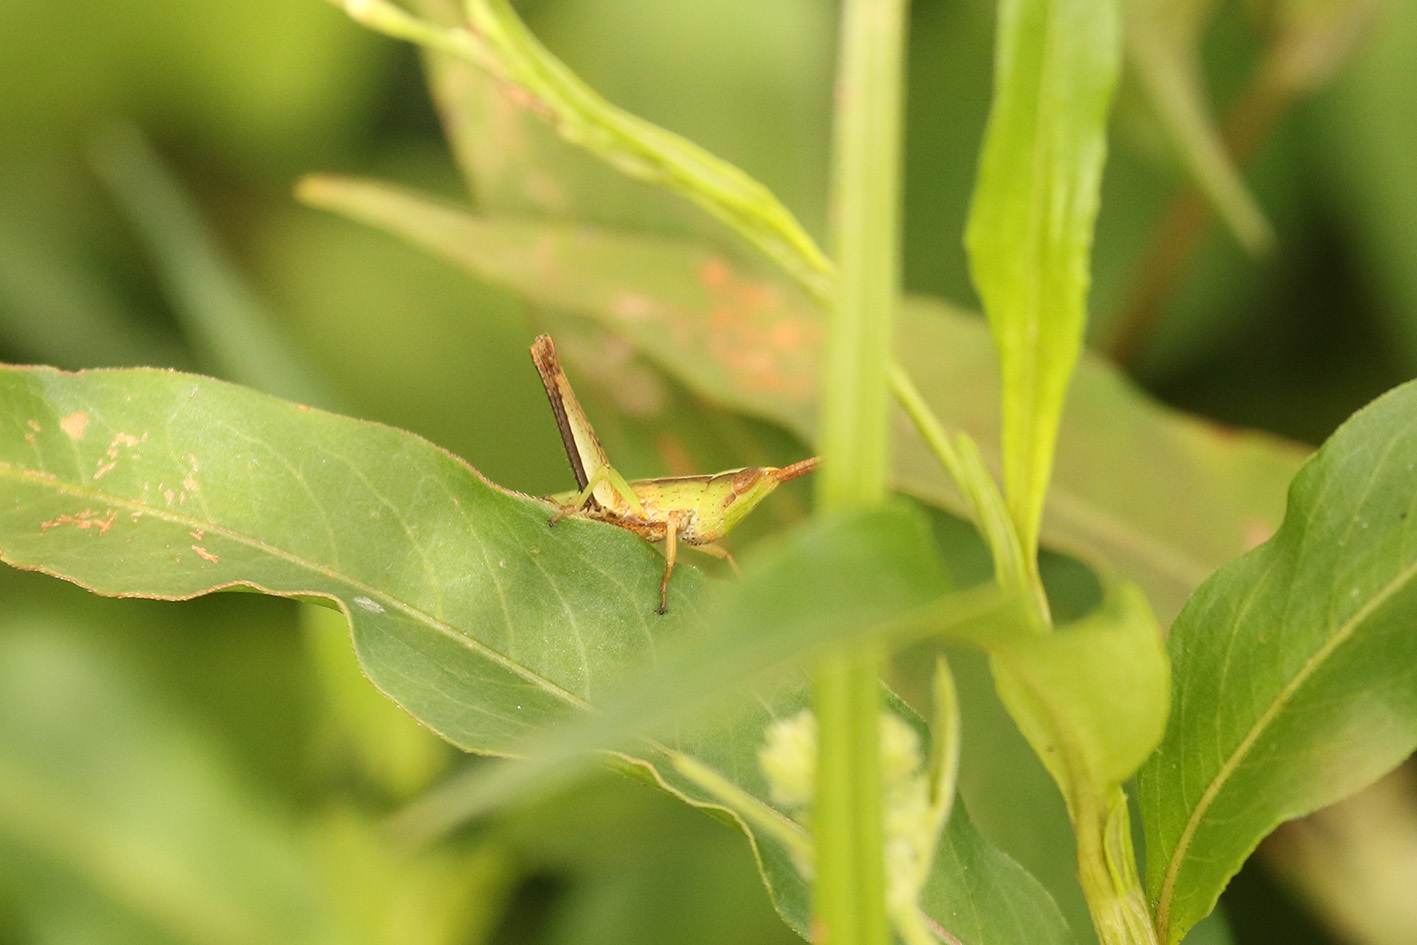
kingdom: Animalia
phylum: Arthropoda
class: Insecta
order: Orthoptera
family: Acrididae
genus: Metaleptea
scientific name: Metaleptea adspersa
